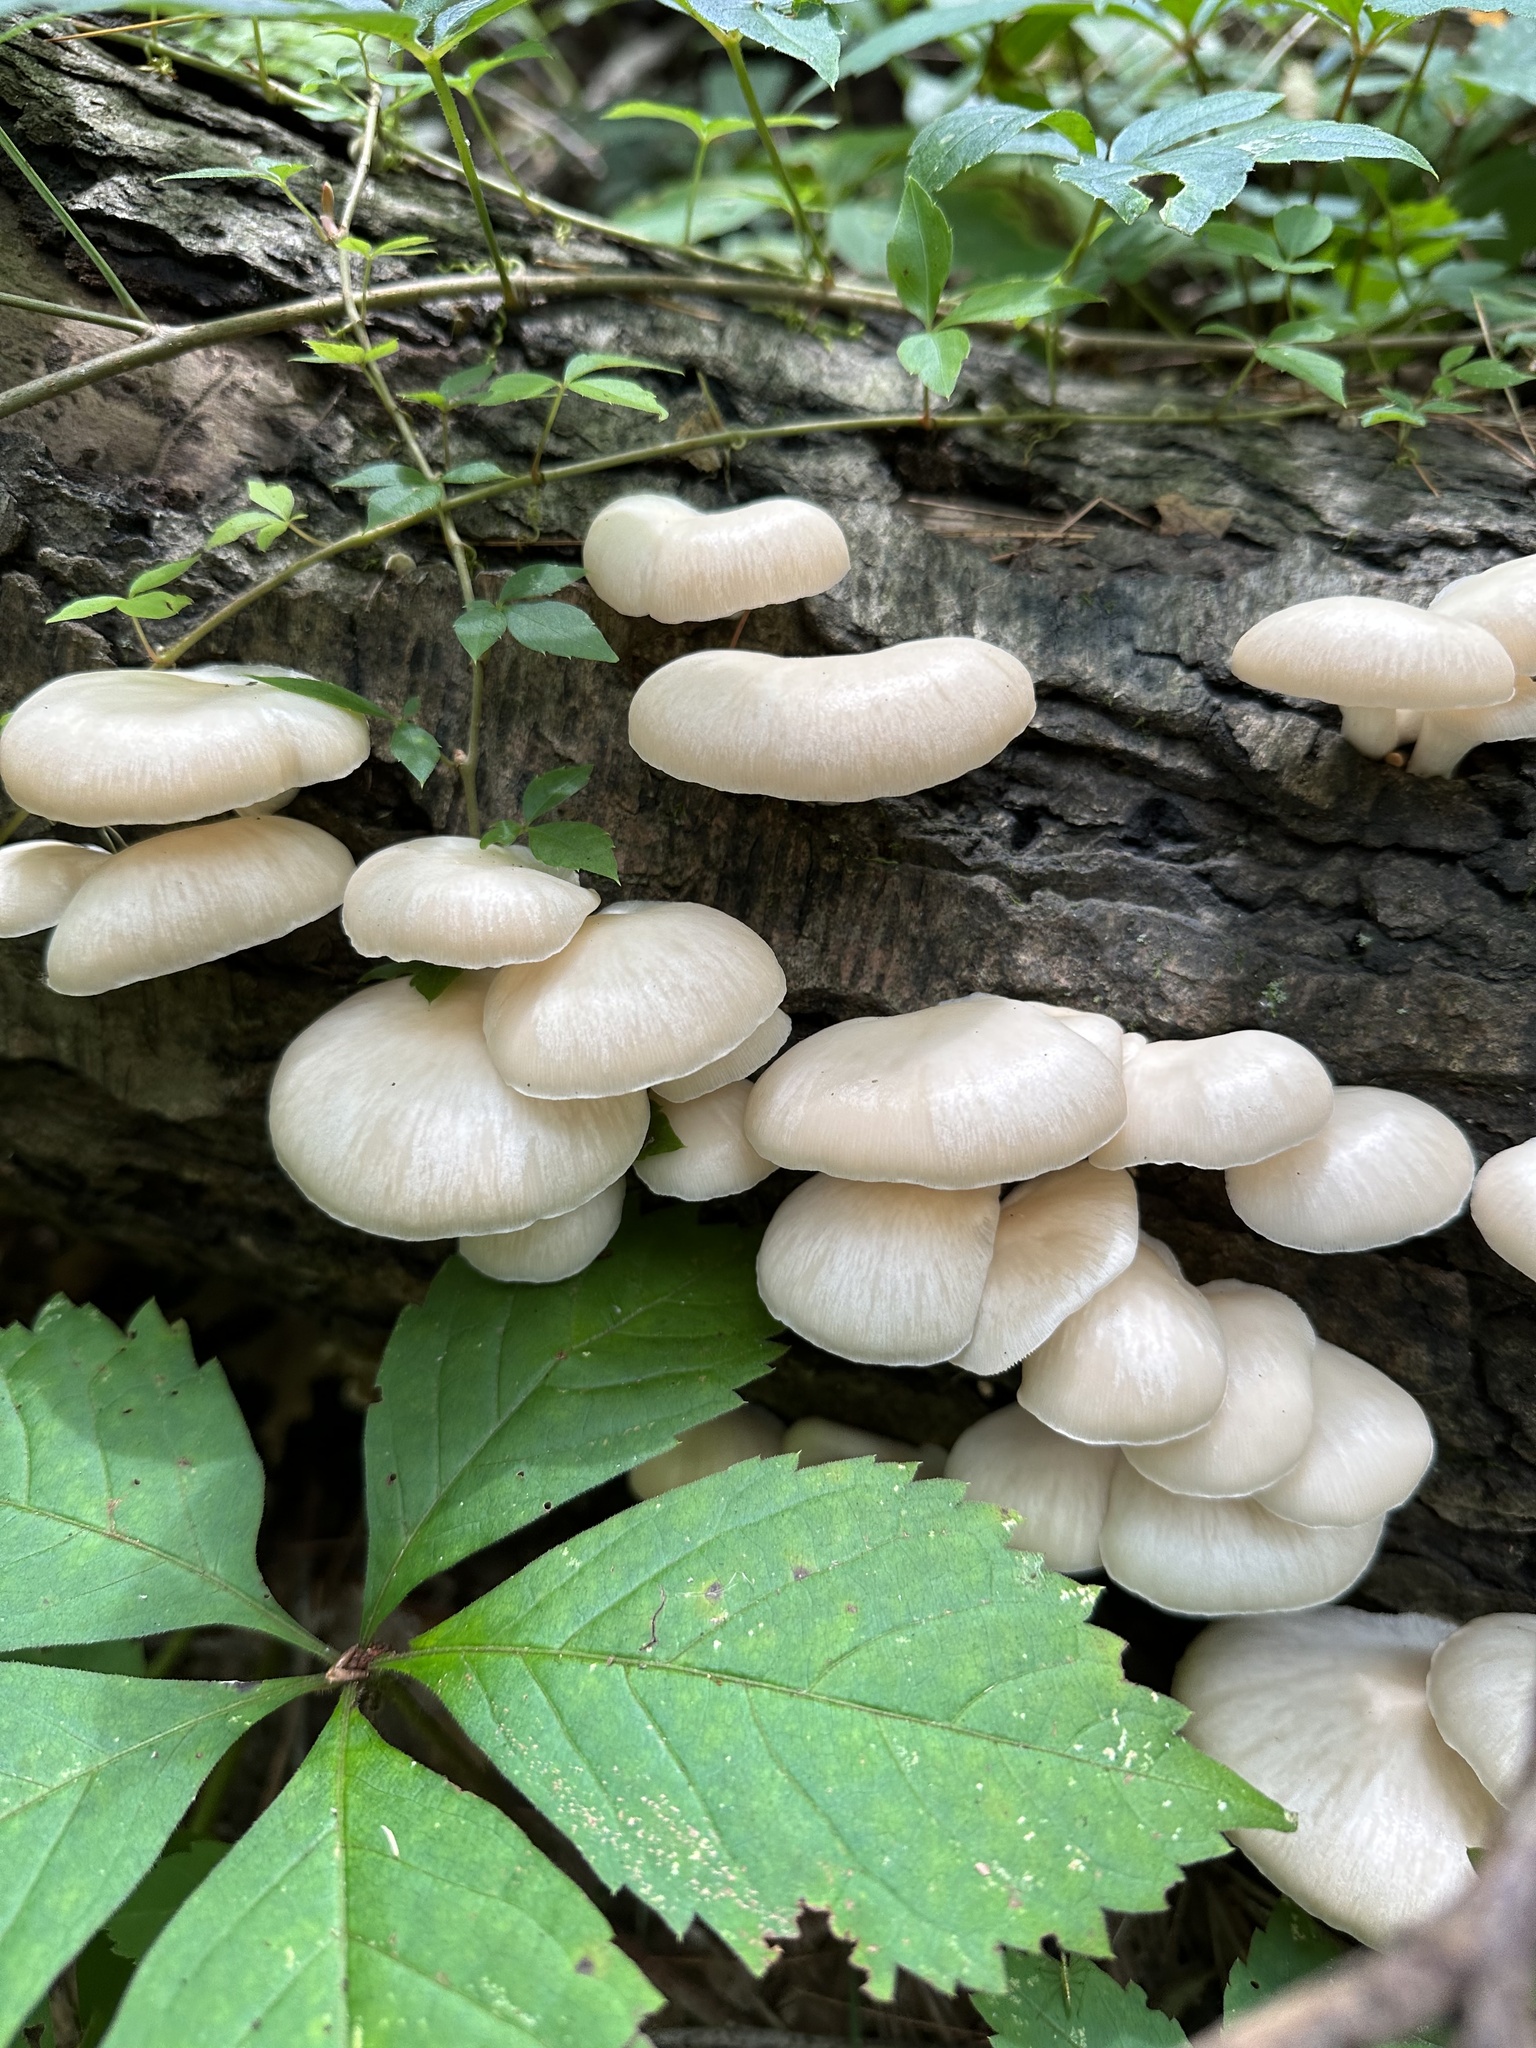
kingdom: Fungi
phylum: Basidiomycota
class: Agaricomycetes
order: Agaricales
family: Pleurotaceae
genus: Pleurotus
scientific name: Pleurotus pulmonarius
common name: Pale oyster
